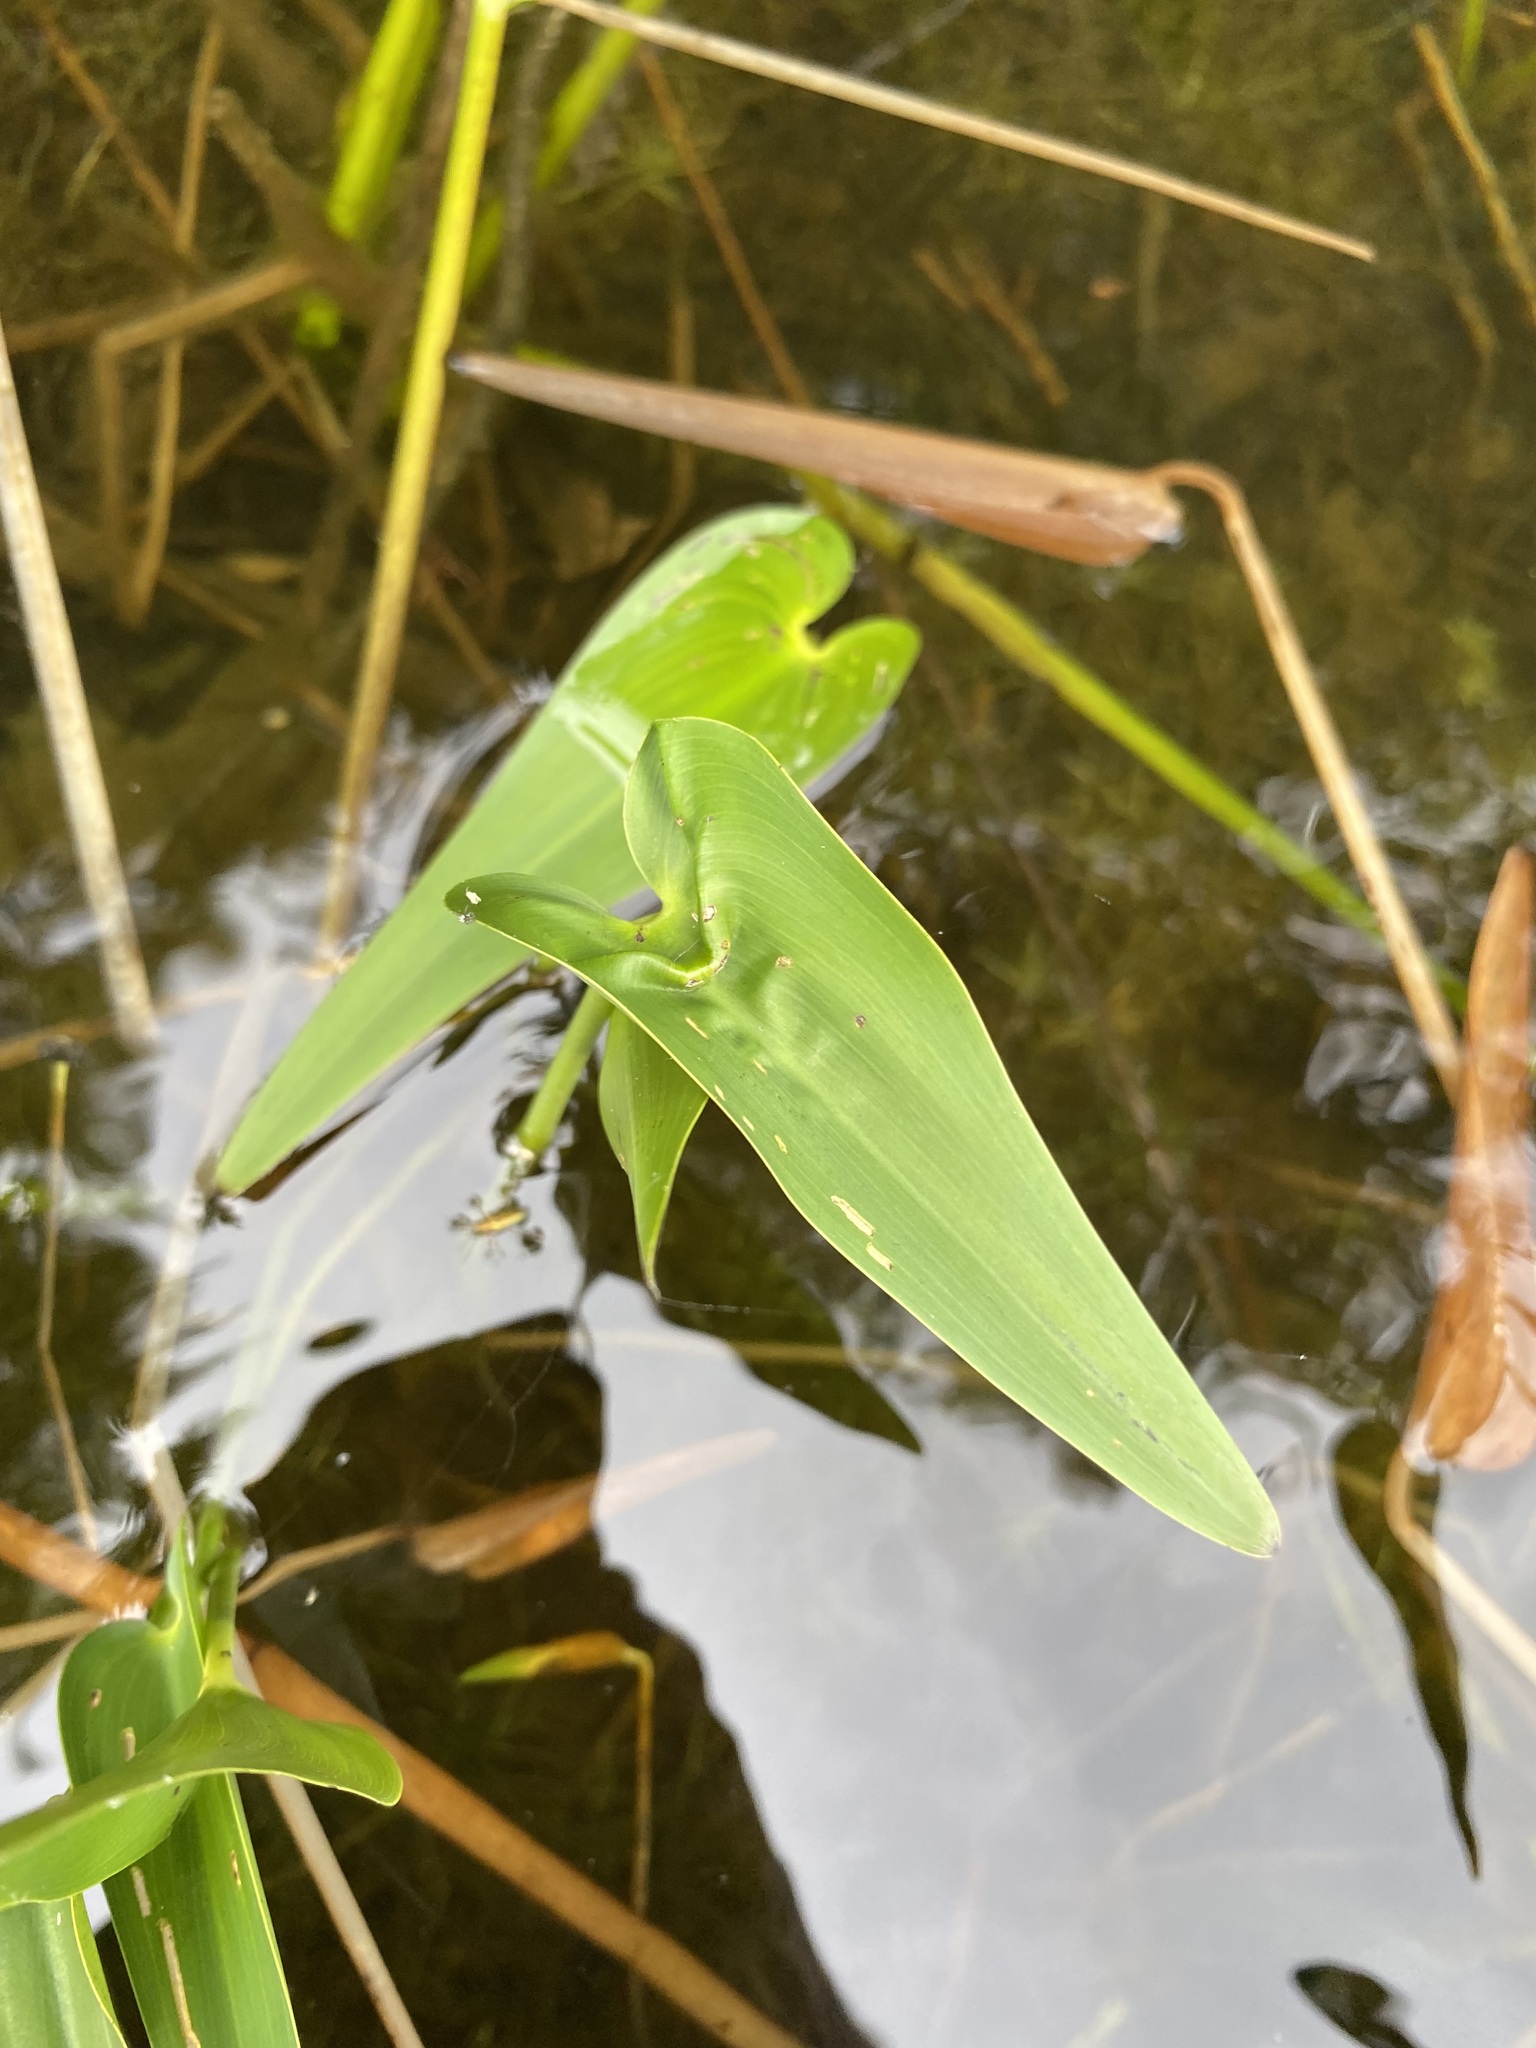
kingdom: Plantae
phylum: Tracheophyta
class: Liliopsida
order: Commelinales
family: Pontederiaceae
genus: Pontederia
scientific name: Pontederia cordata
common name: Pickerelweed
